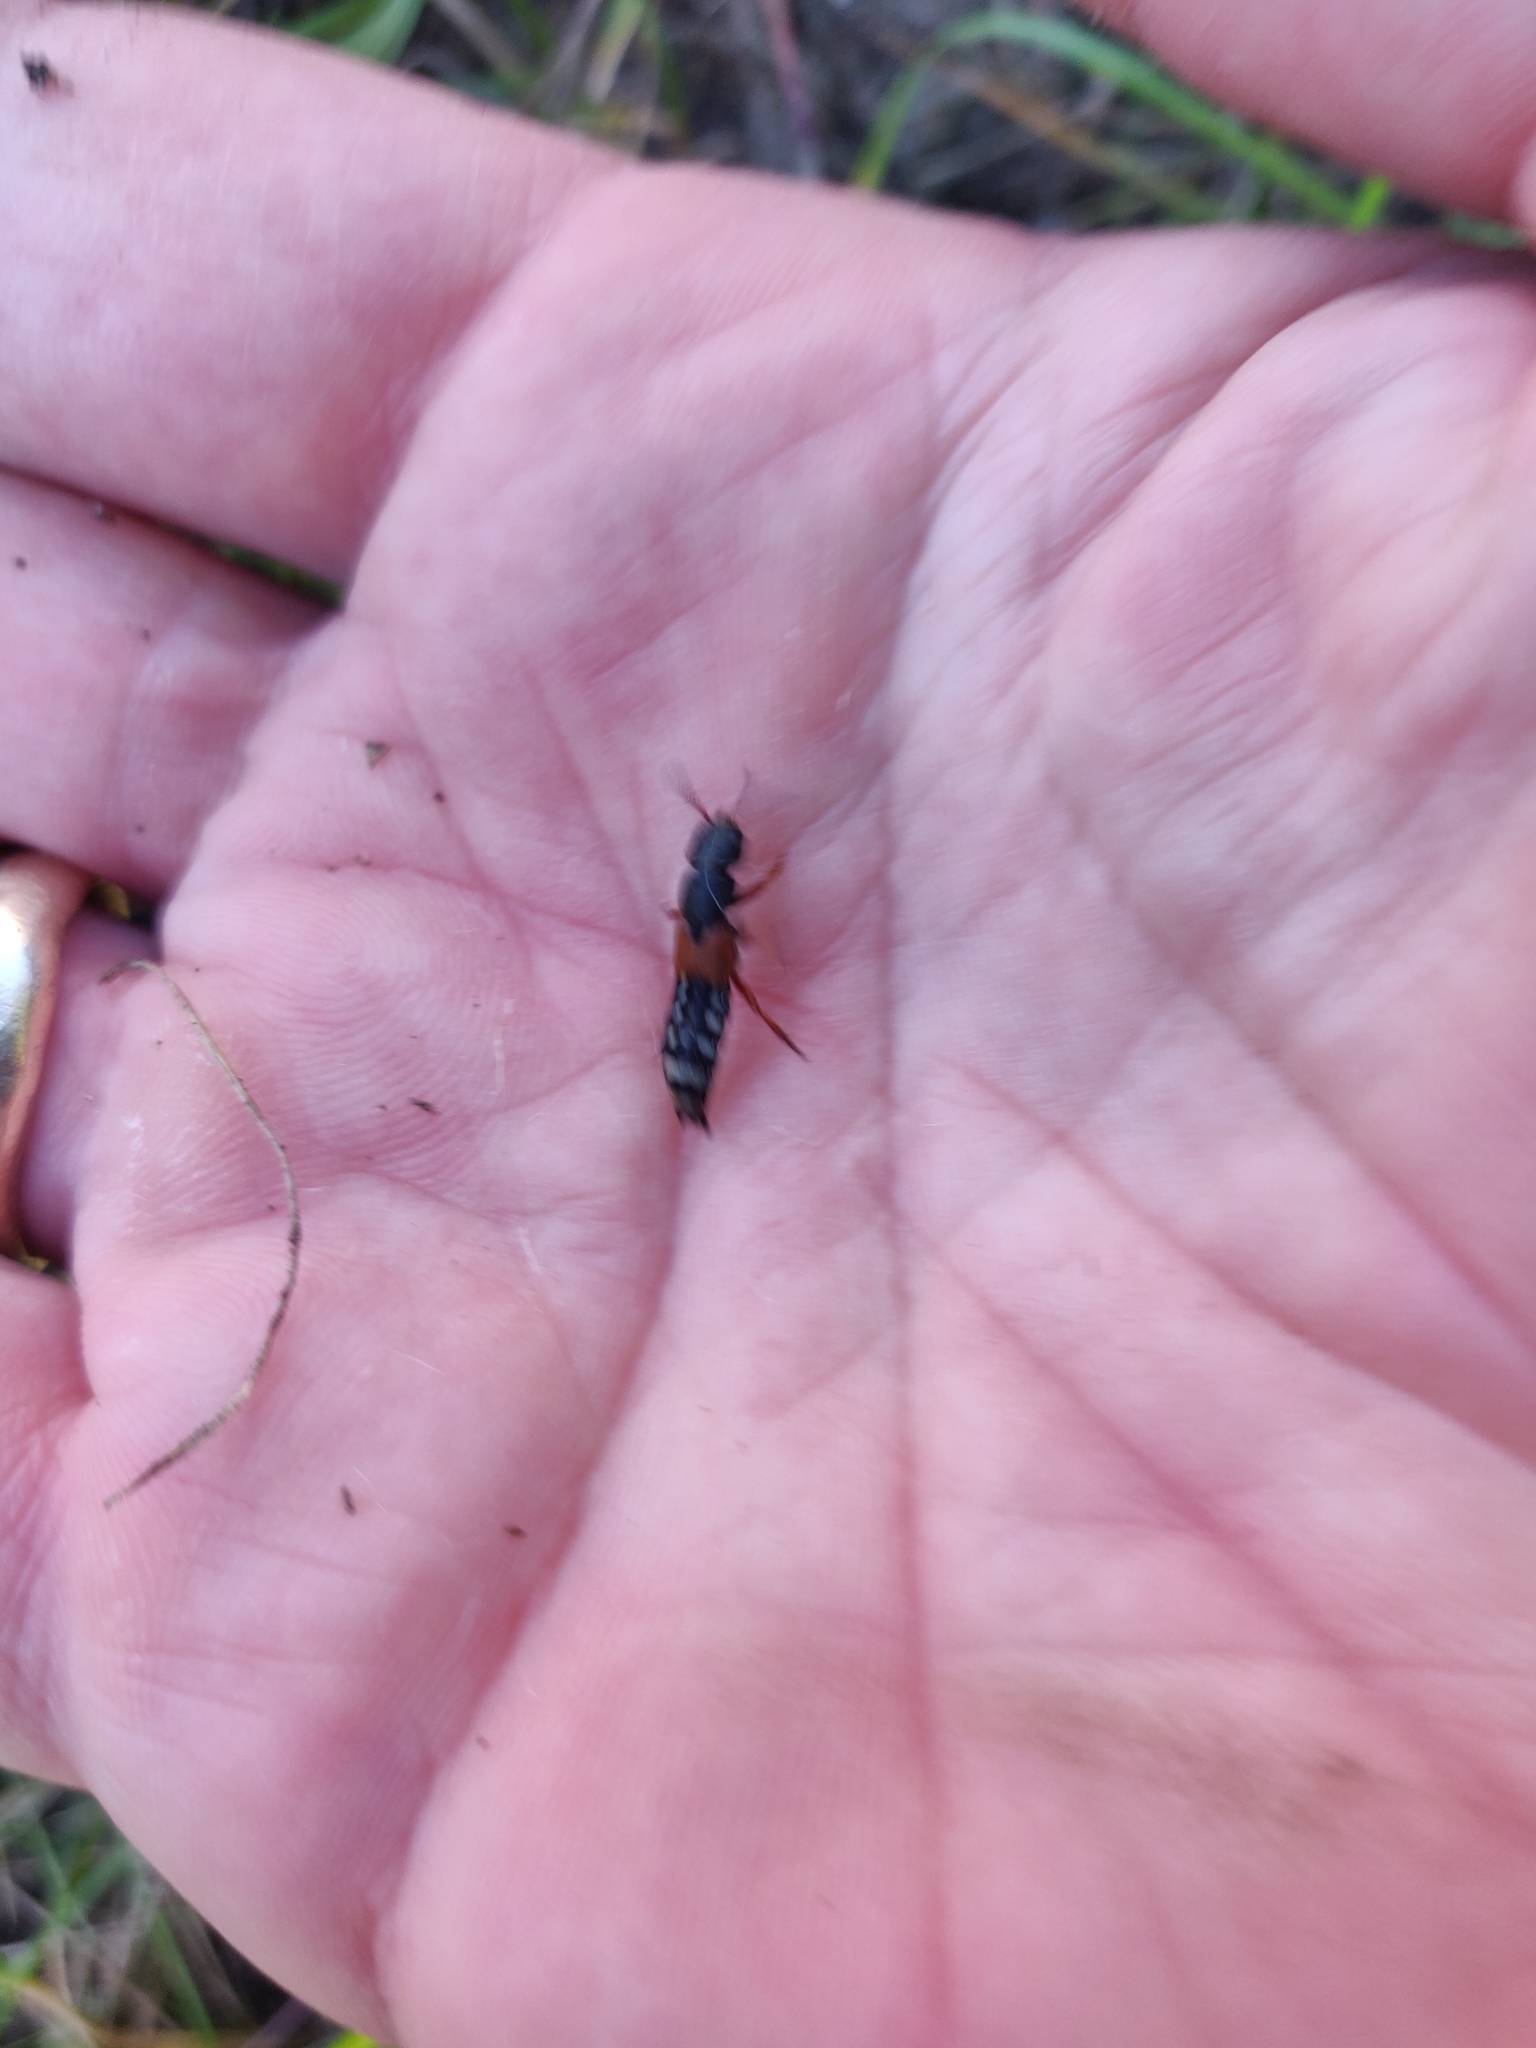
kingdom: Animalia
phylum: Arthropoda
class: Insecta
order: Coleoptera
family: Staphylinidae
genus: Platydracus
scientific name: Platydracus stercorarius
